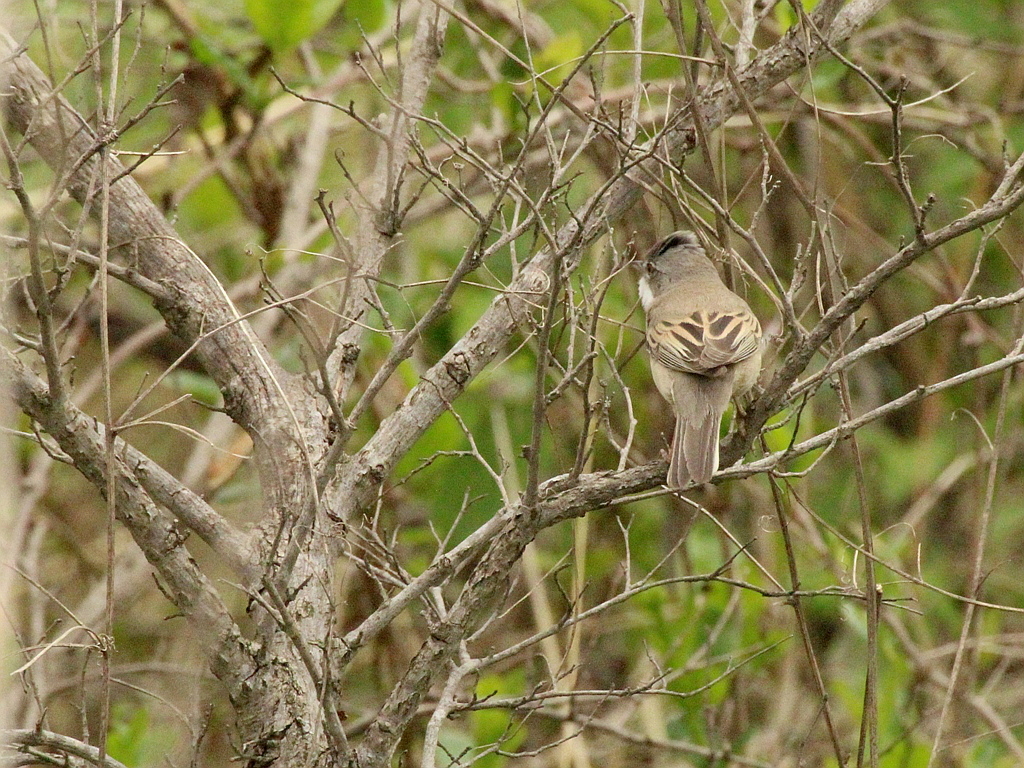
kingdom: Animalia
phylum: Chordata
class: Aves
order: Passeriformes
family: Sylviidae
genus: Sylvia
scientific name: Sylvia communis
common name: Common whitethroat
